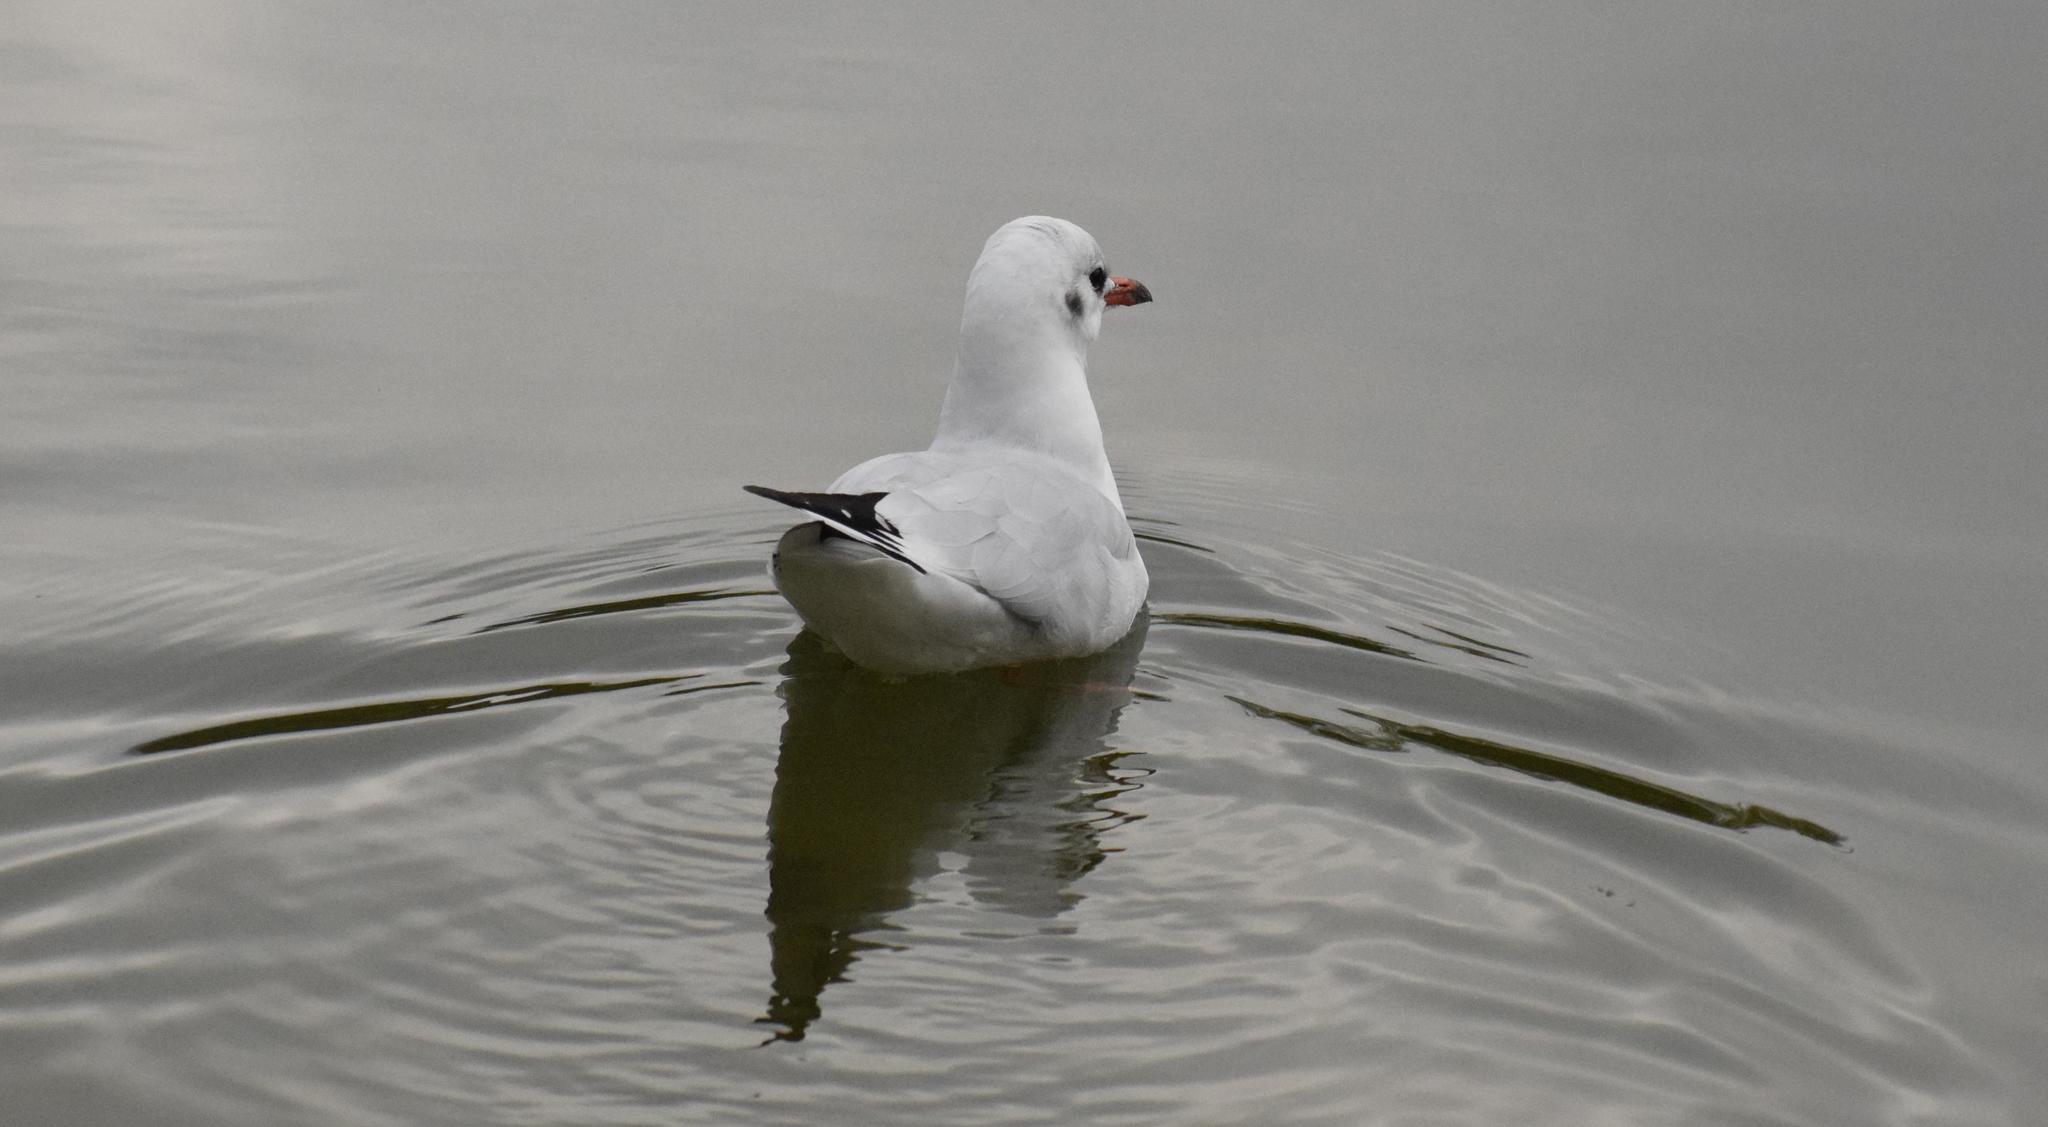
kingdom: Animalia
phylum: Chordata
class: Aves
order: Charadriiformes
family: Laridae
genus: Chroicocephalus
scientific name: Chroicocephalus ridibundus
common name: Black-headed gull
